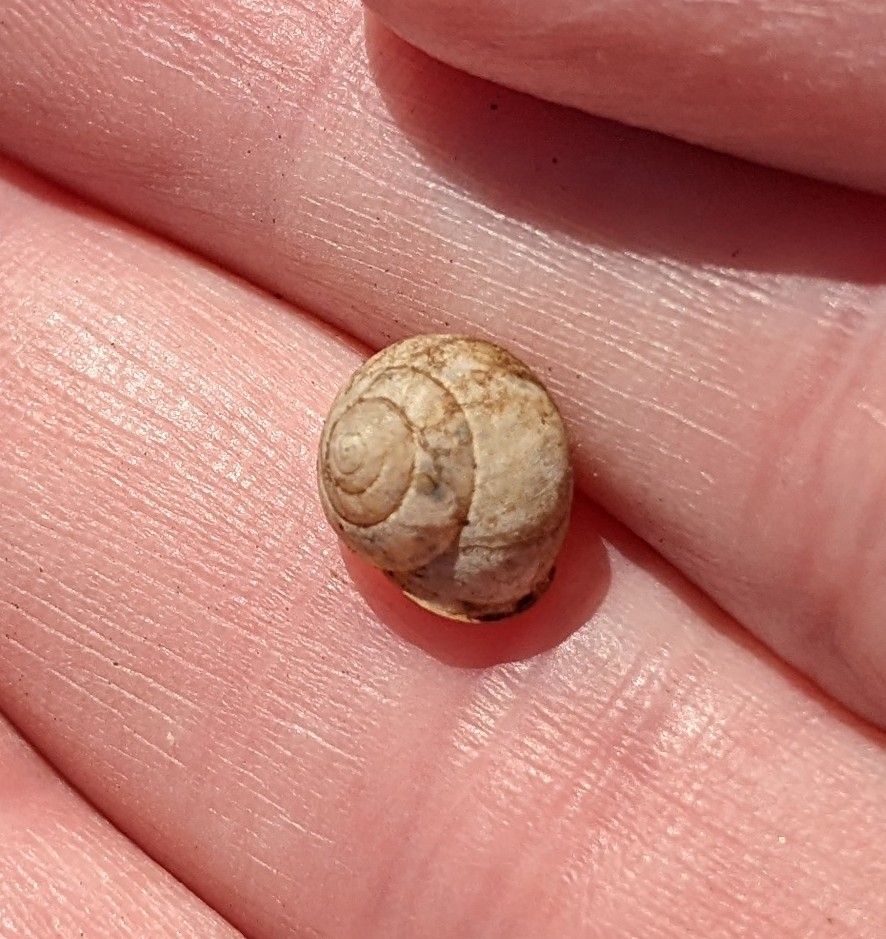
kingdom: Animalia
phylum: Mollusca
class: Gastropoda
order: Cycloneritida
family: Helicinidae
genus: Helicina
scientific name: Helicina orbiculata
